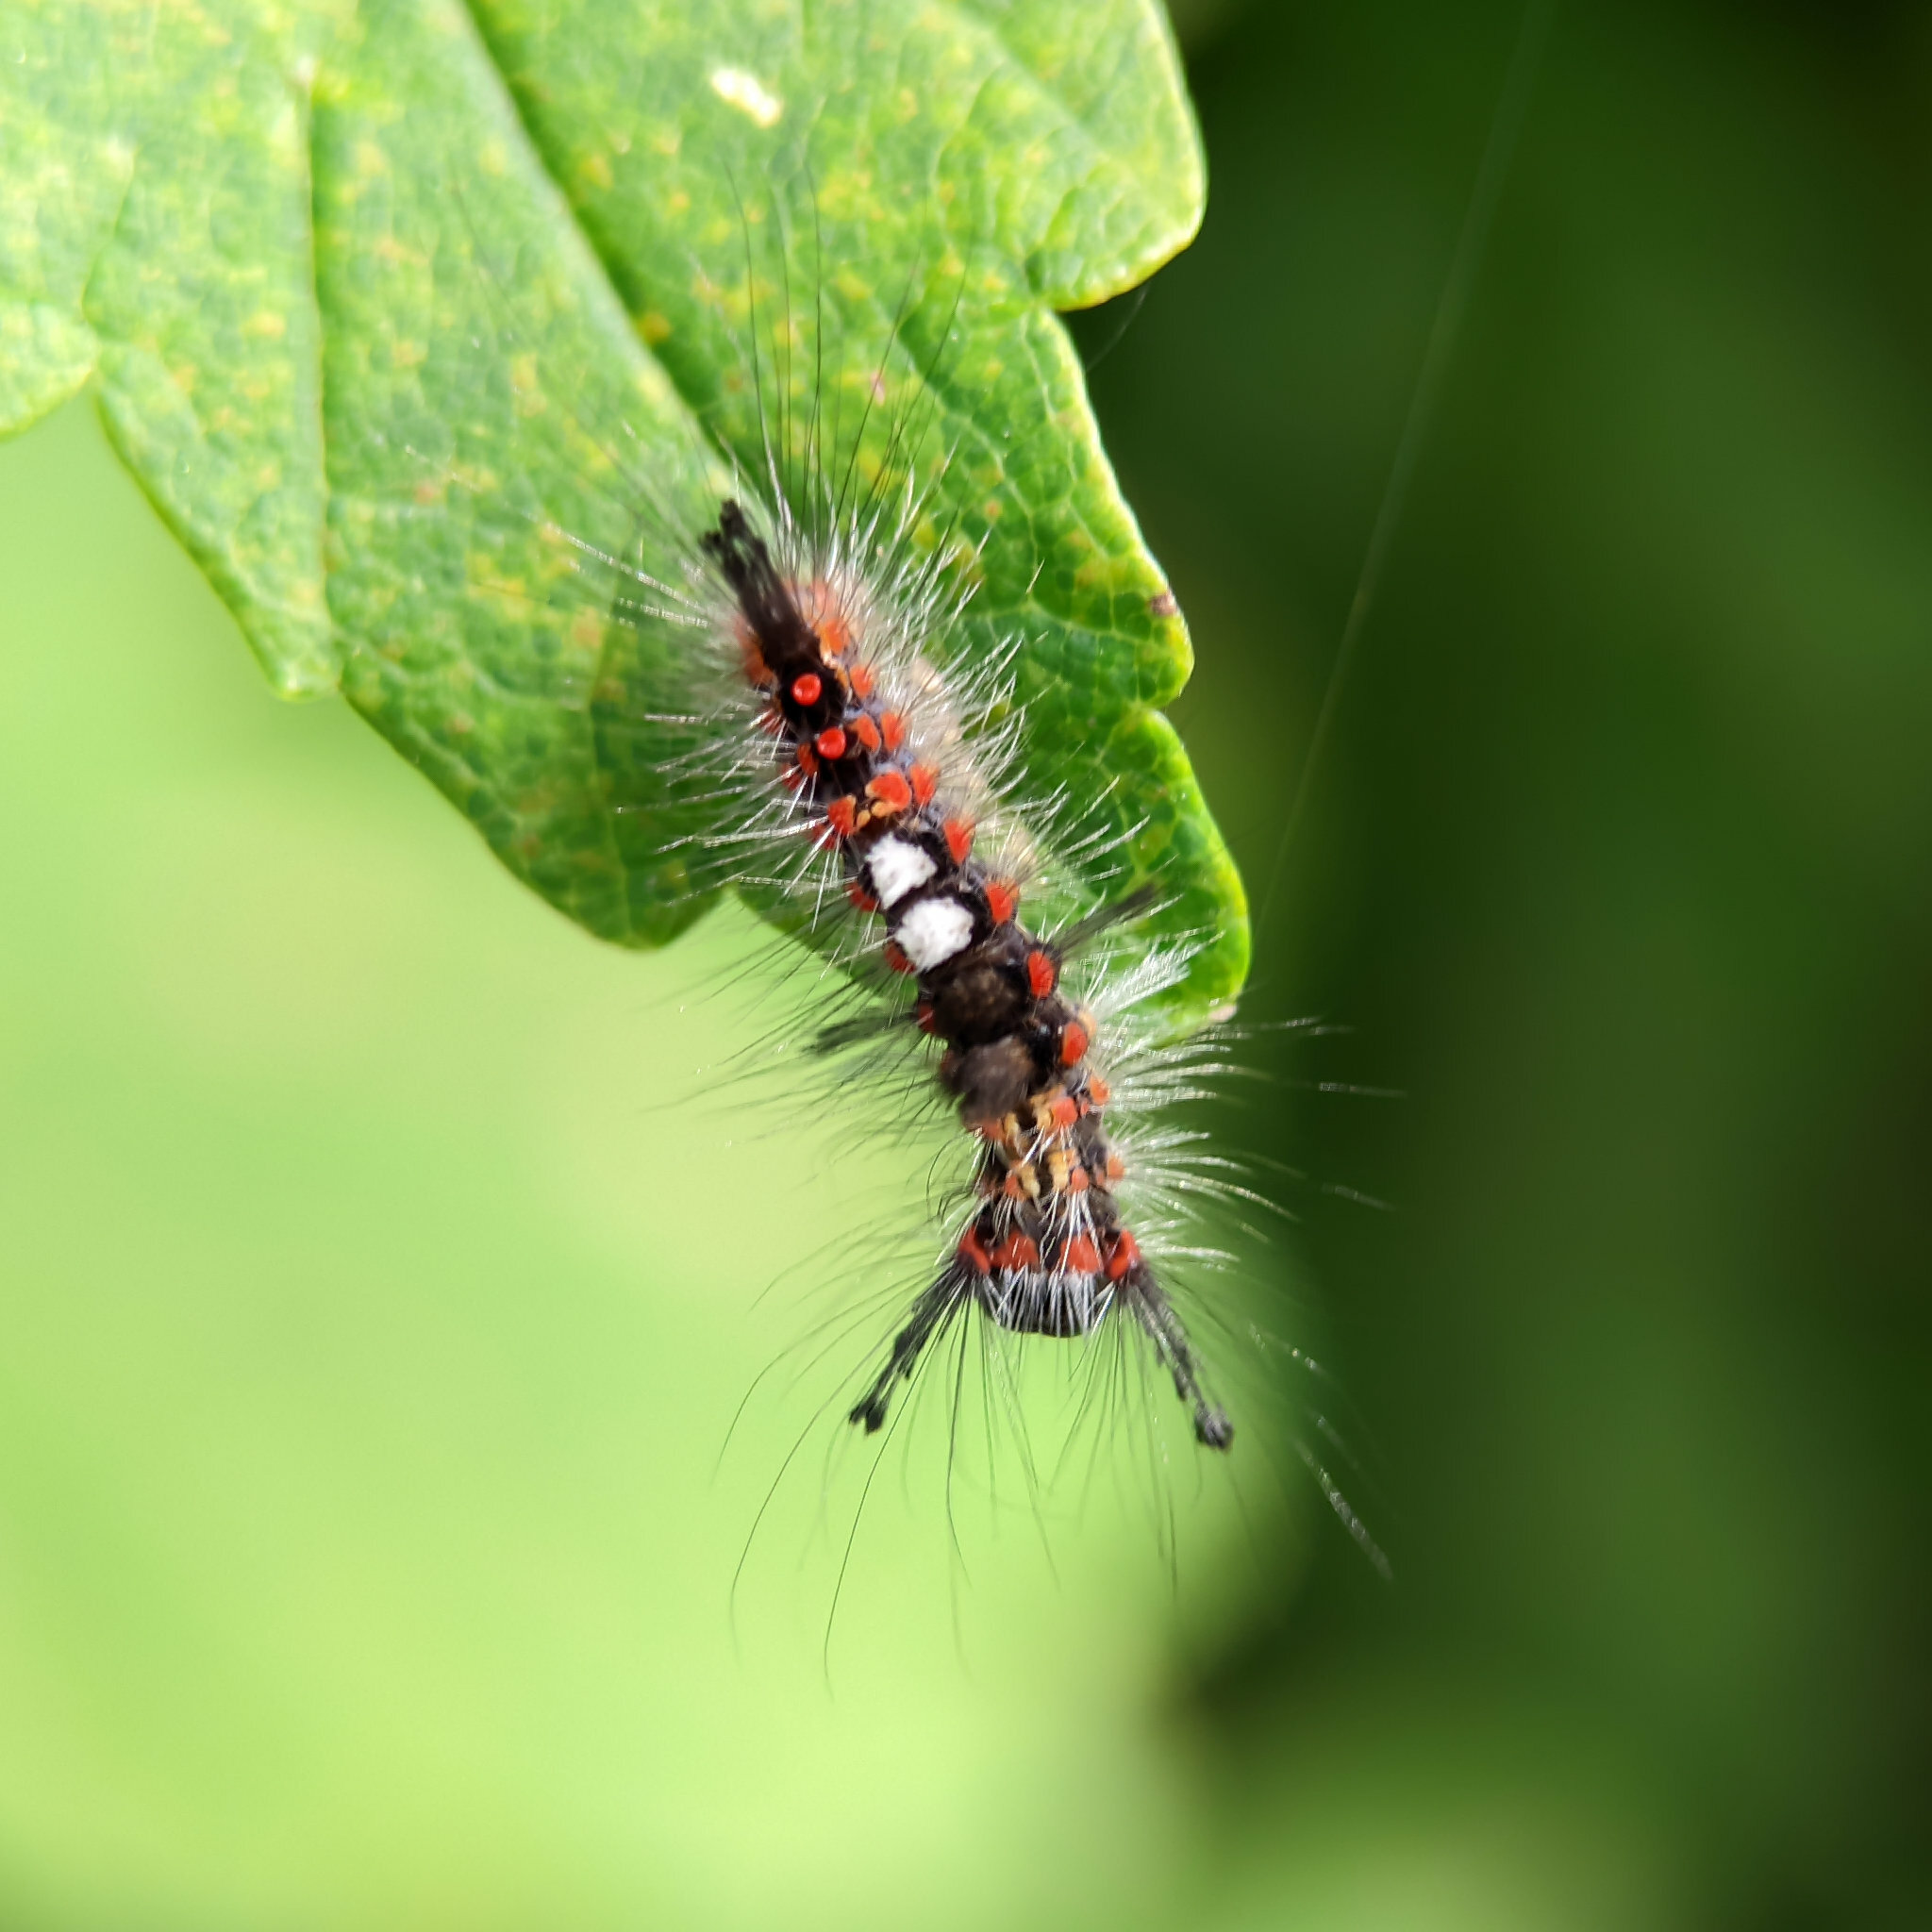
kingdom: Animalia
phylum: Arthropoda
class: Insecta
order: Lepidoptera
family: Erebidae
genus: Orgyia
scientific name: Orgyia antiqua
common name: Vapourer
